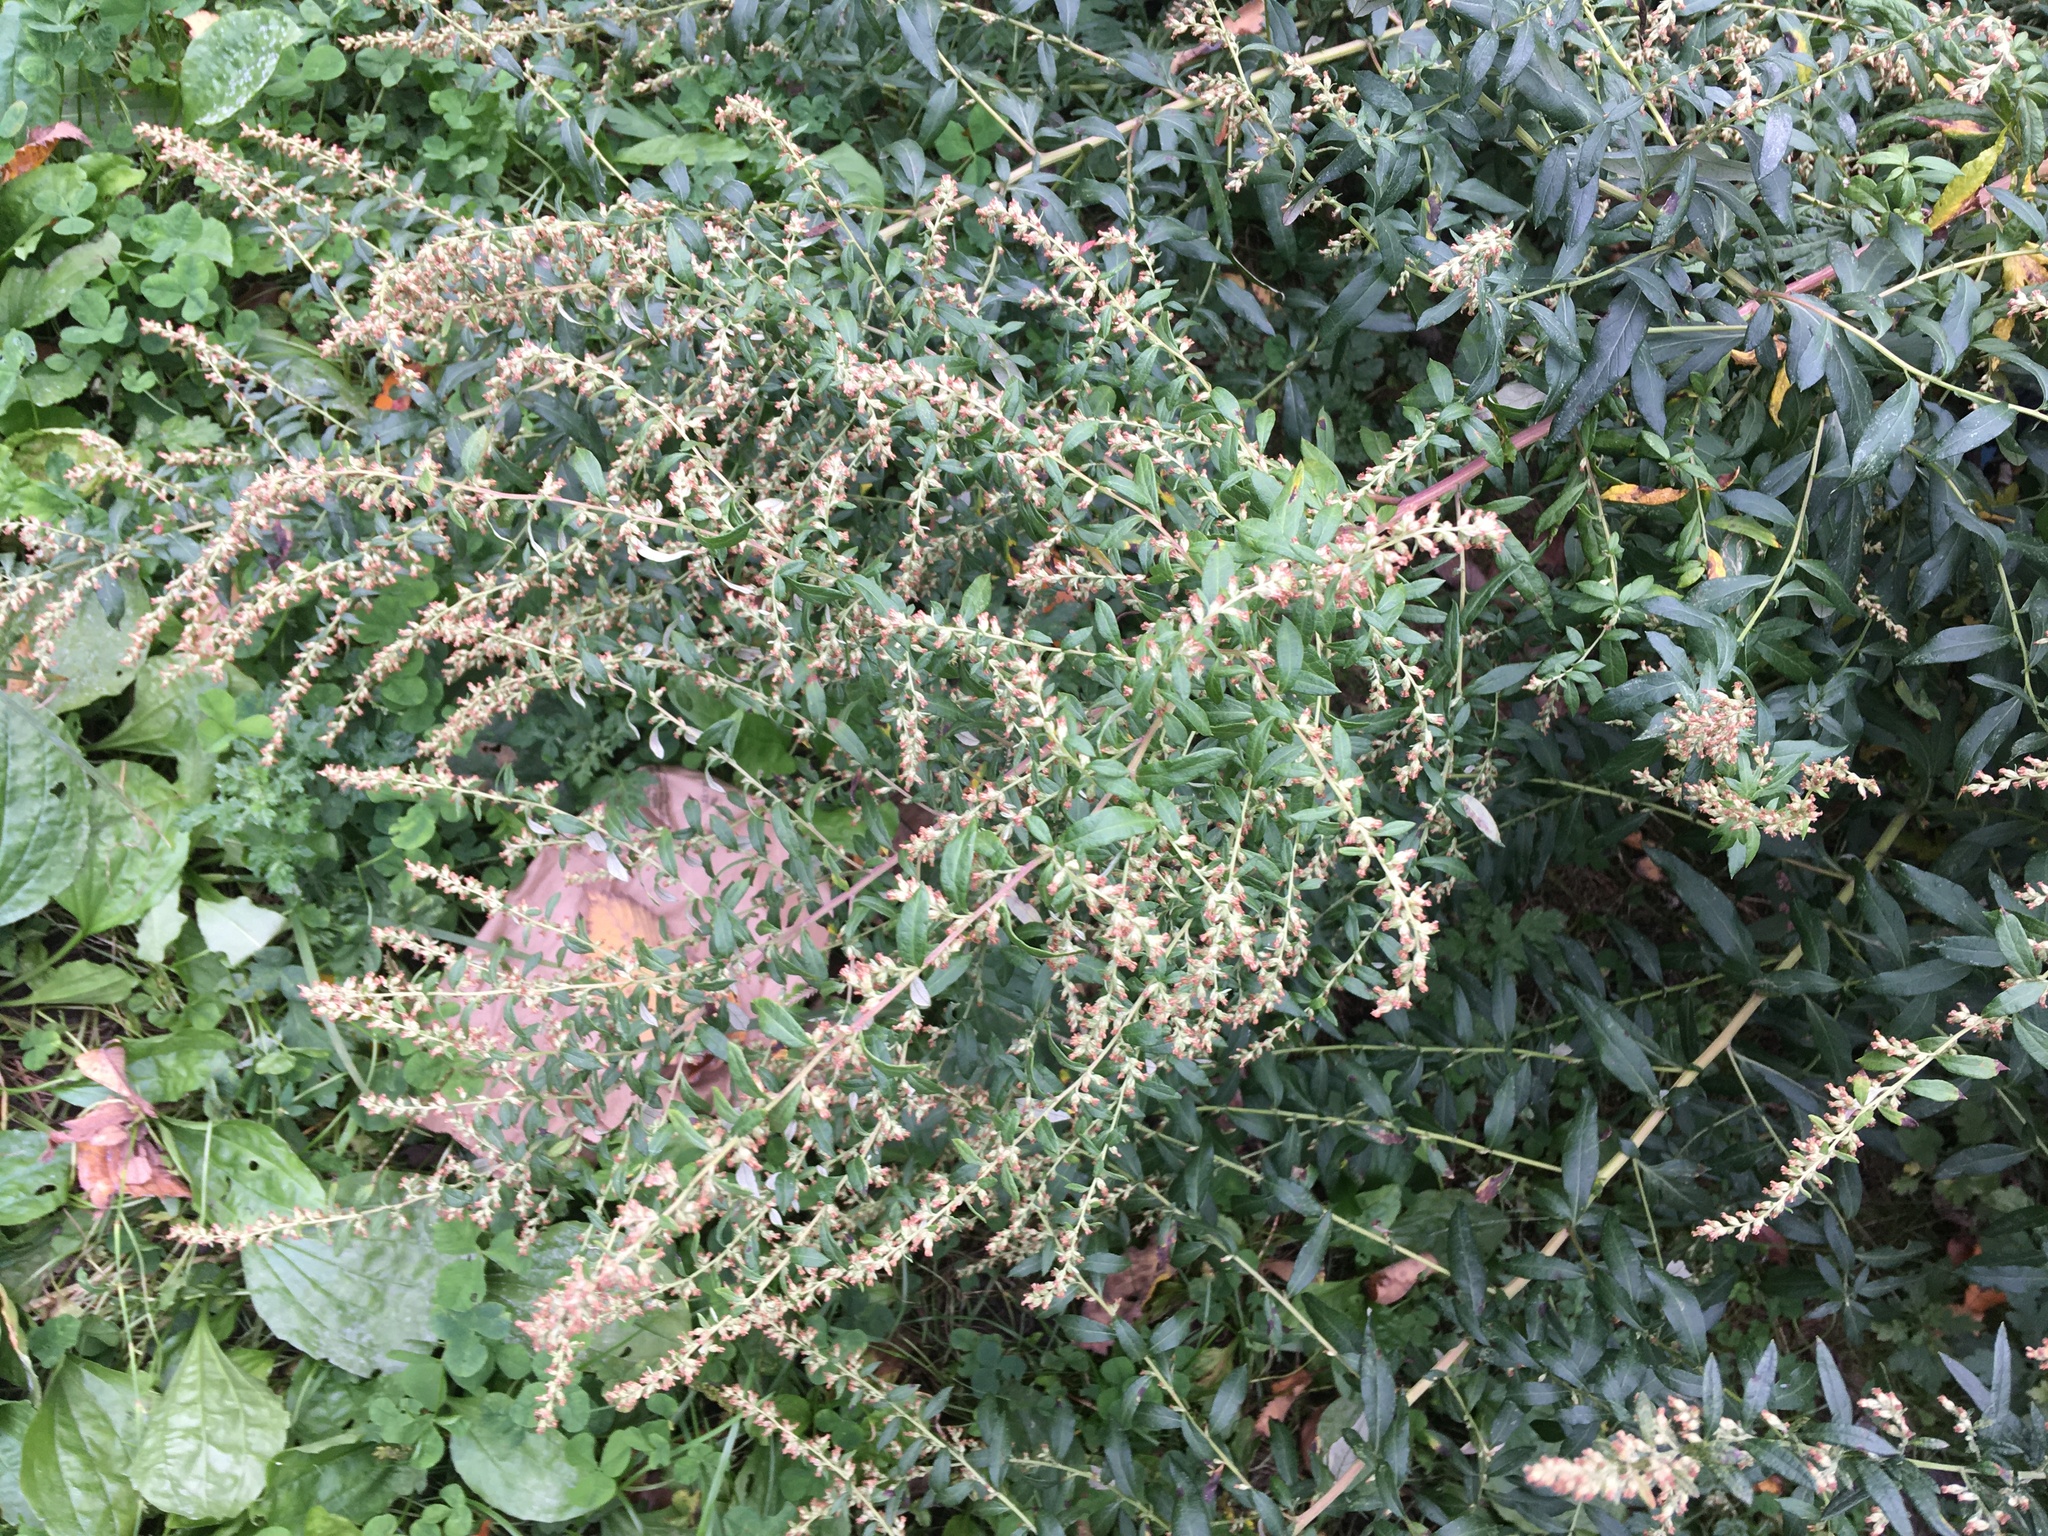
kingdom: Plantae
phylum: Tracheophyta
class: Magnoliopsida
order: Asterales
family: Asteraceae
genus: Artemisia
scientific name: Artemisia vulgaris
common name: Mugwort
